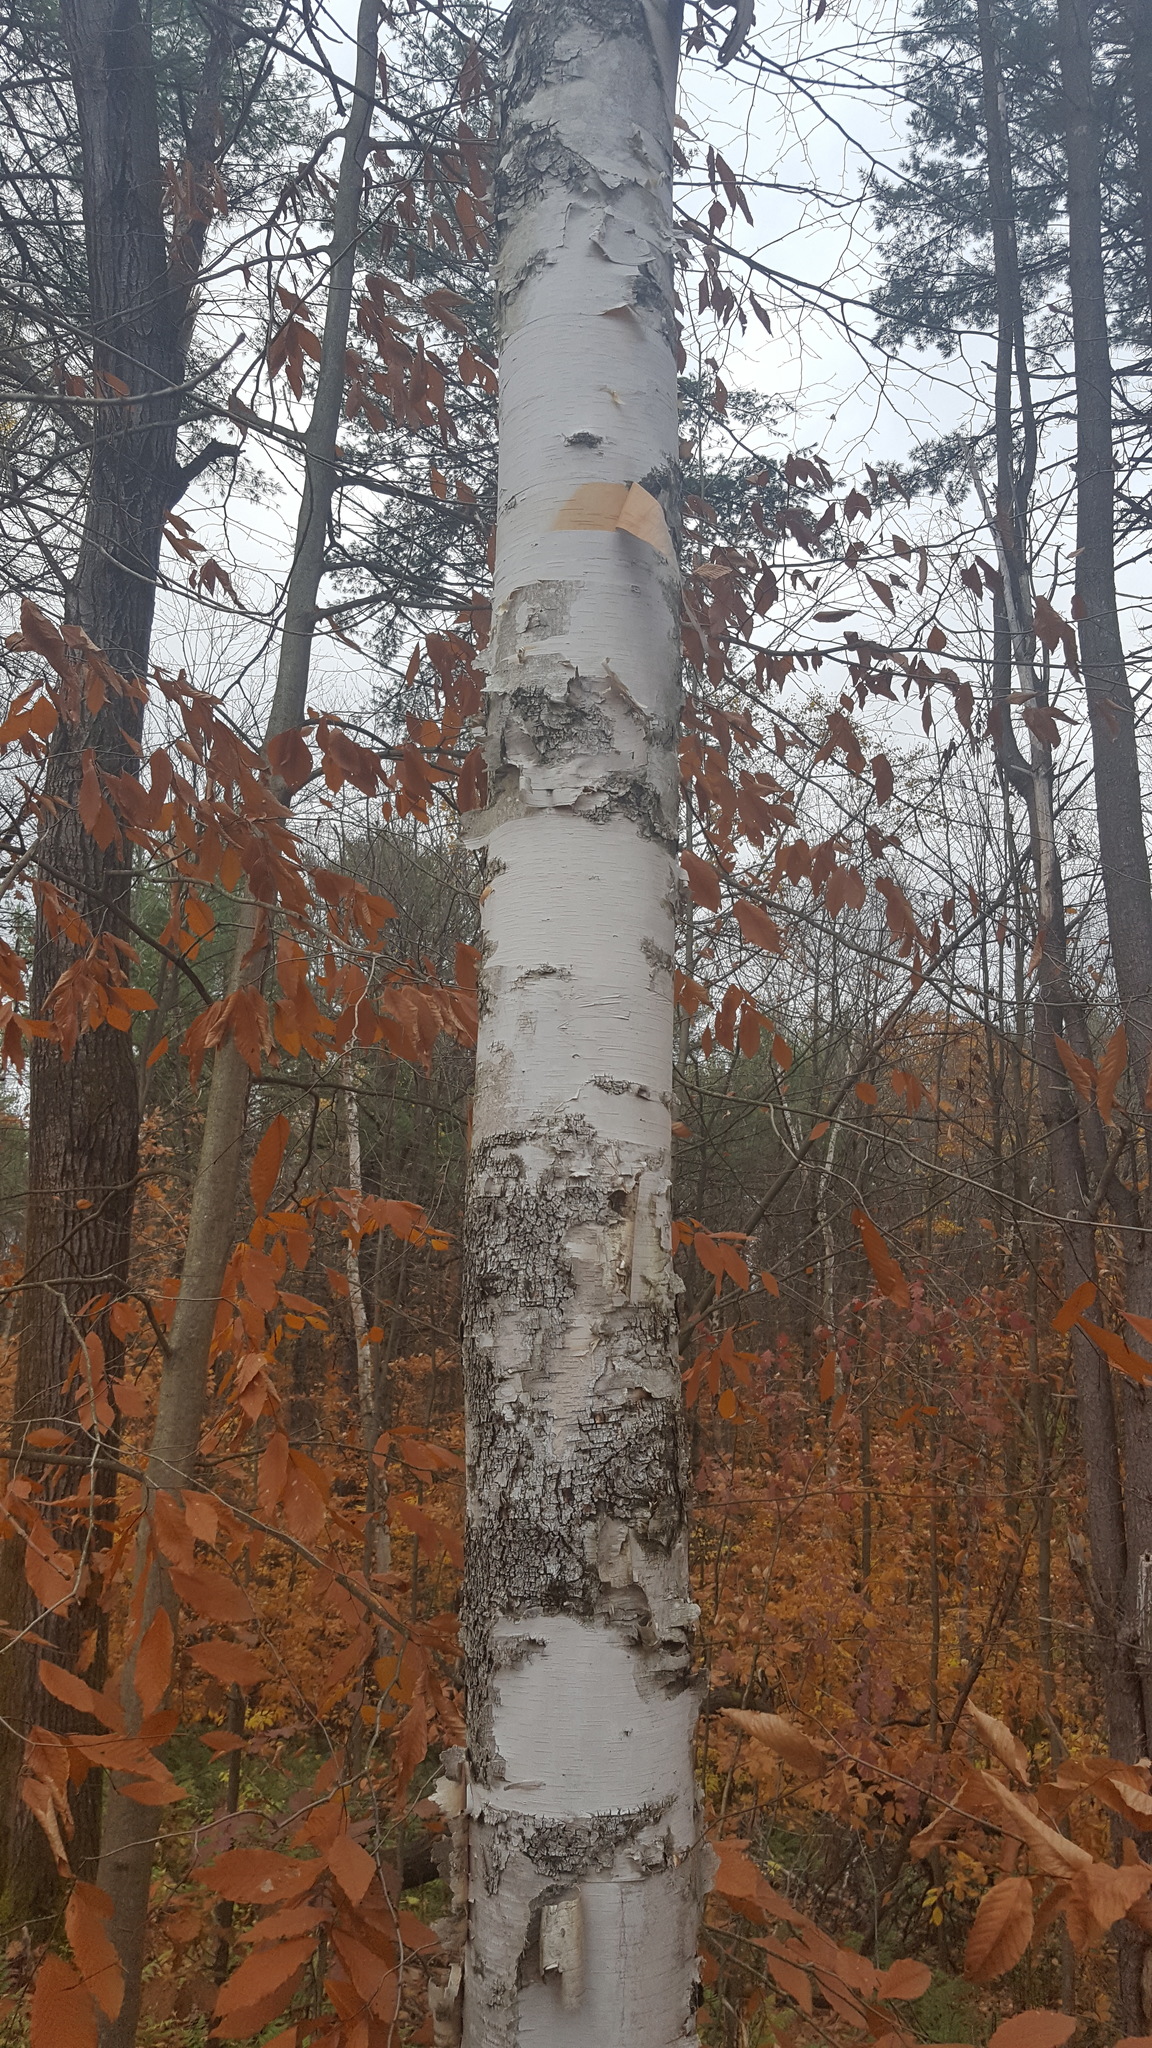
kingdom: Plantae
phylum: Tracheophyta
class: Magnoliopsida
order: Fagales
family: Betulaceae
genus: Betula
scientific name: Betula papyrifera
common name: Paper birch
